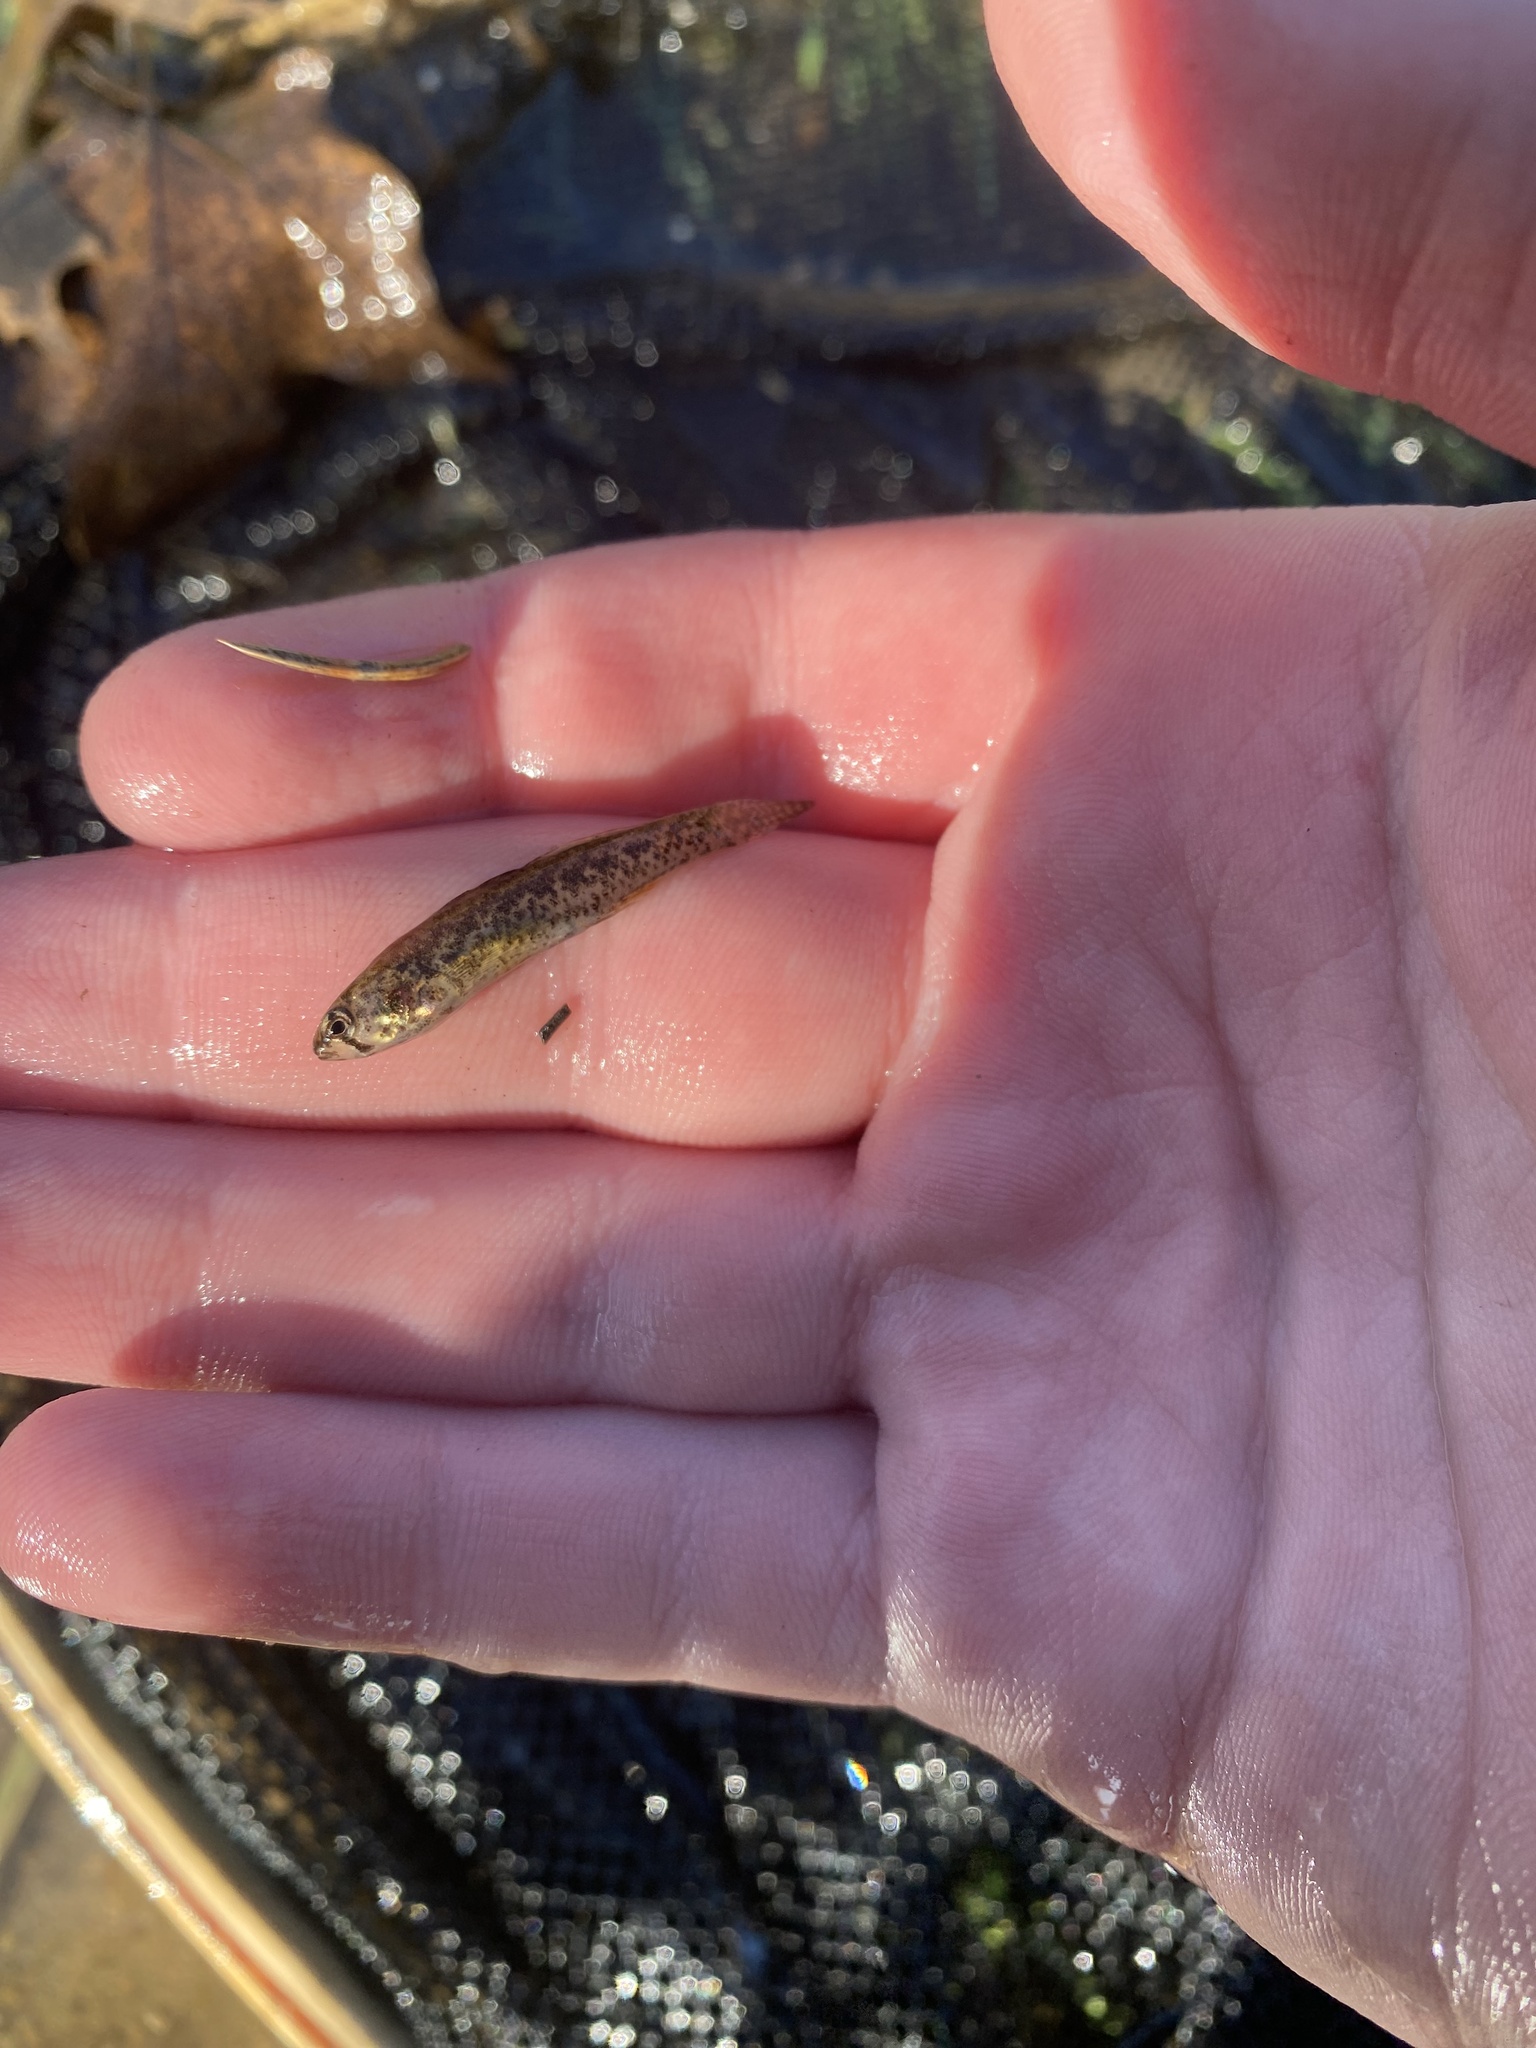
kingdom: Animalia
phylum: Chordata
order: Perciformes
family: Percidae
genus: Etheostoma
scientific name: Etheostoma microperca
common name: Least darter
